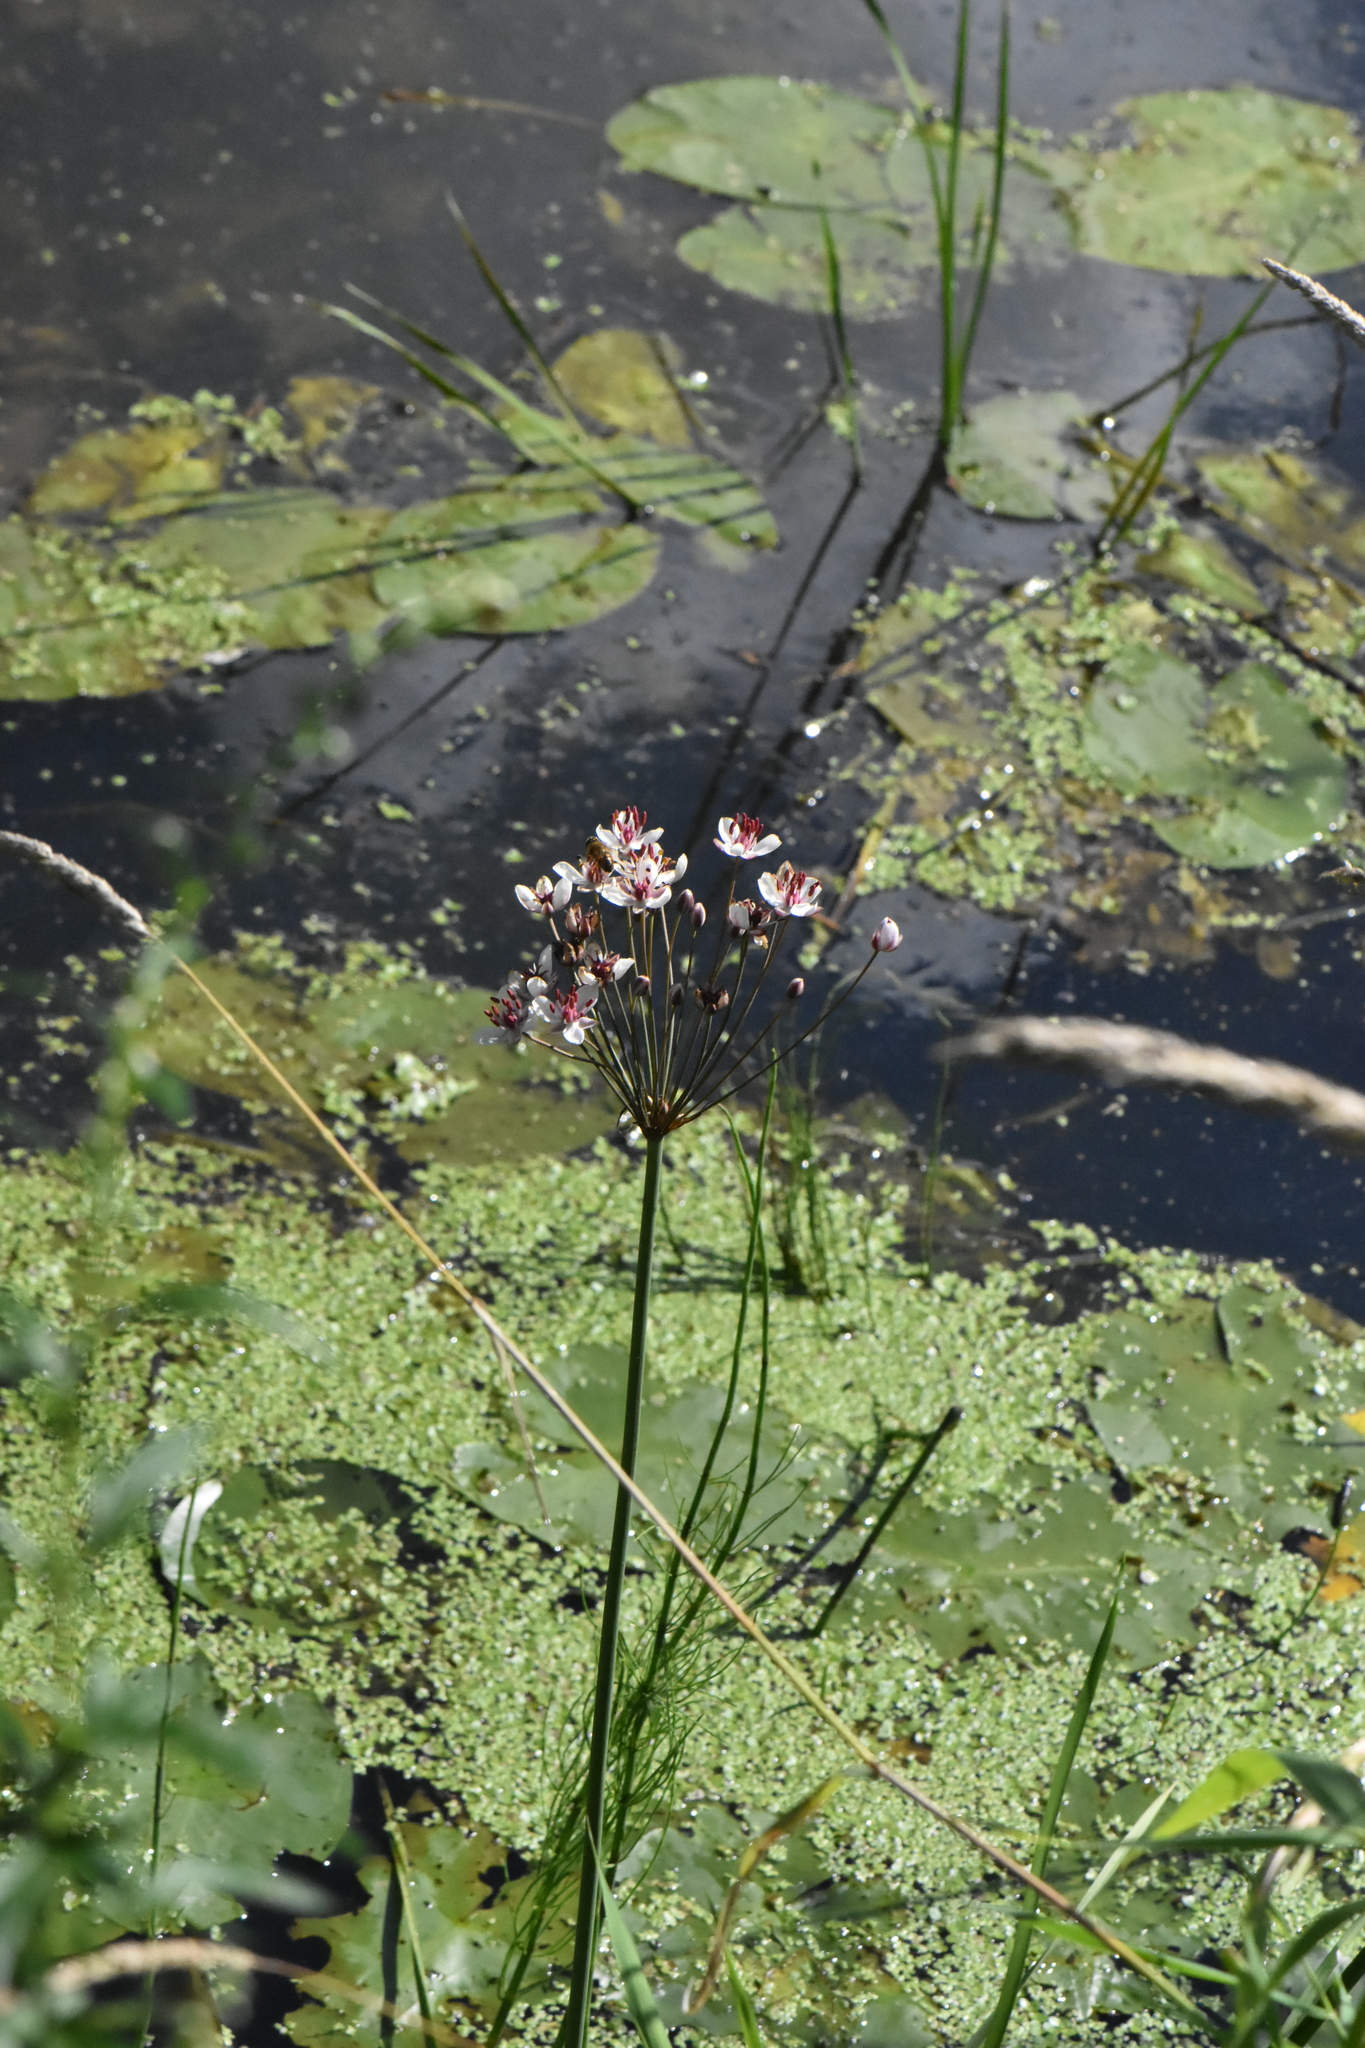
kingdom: Plantae
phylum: Tracheophyta
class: Liliopsida
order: Alismatales
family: Butomaceae
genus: Butomus
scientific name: Butomus umbellatus
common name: Flowering-rush
